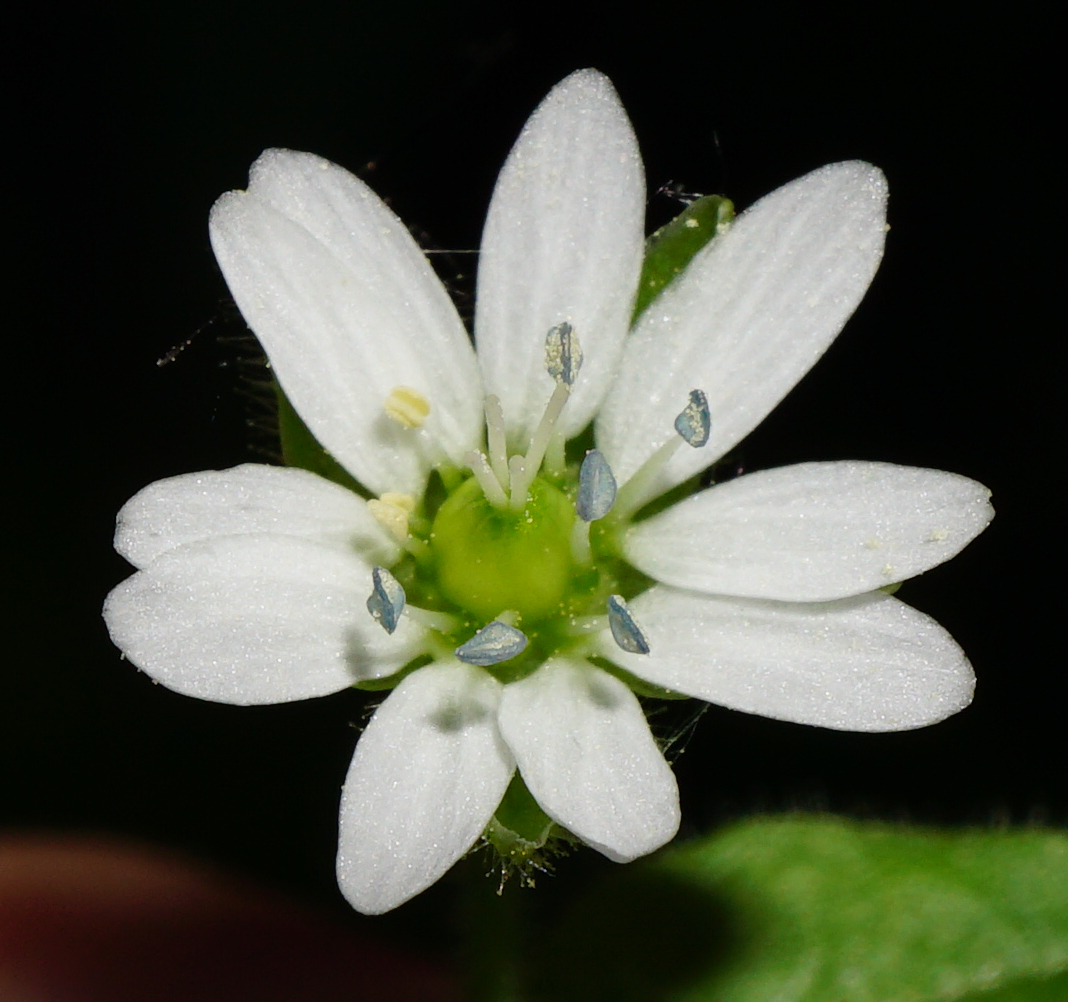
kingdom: Plantae
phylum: Tracheophyta
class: Magnoliopsida
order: Caryophyllales
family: Caryophyllaceae
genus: Stellaria
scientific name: Stellaria aquatica
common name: Water chickweed
